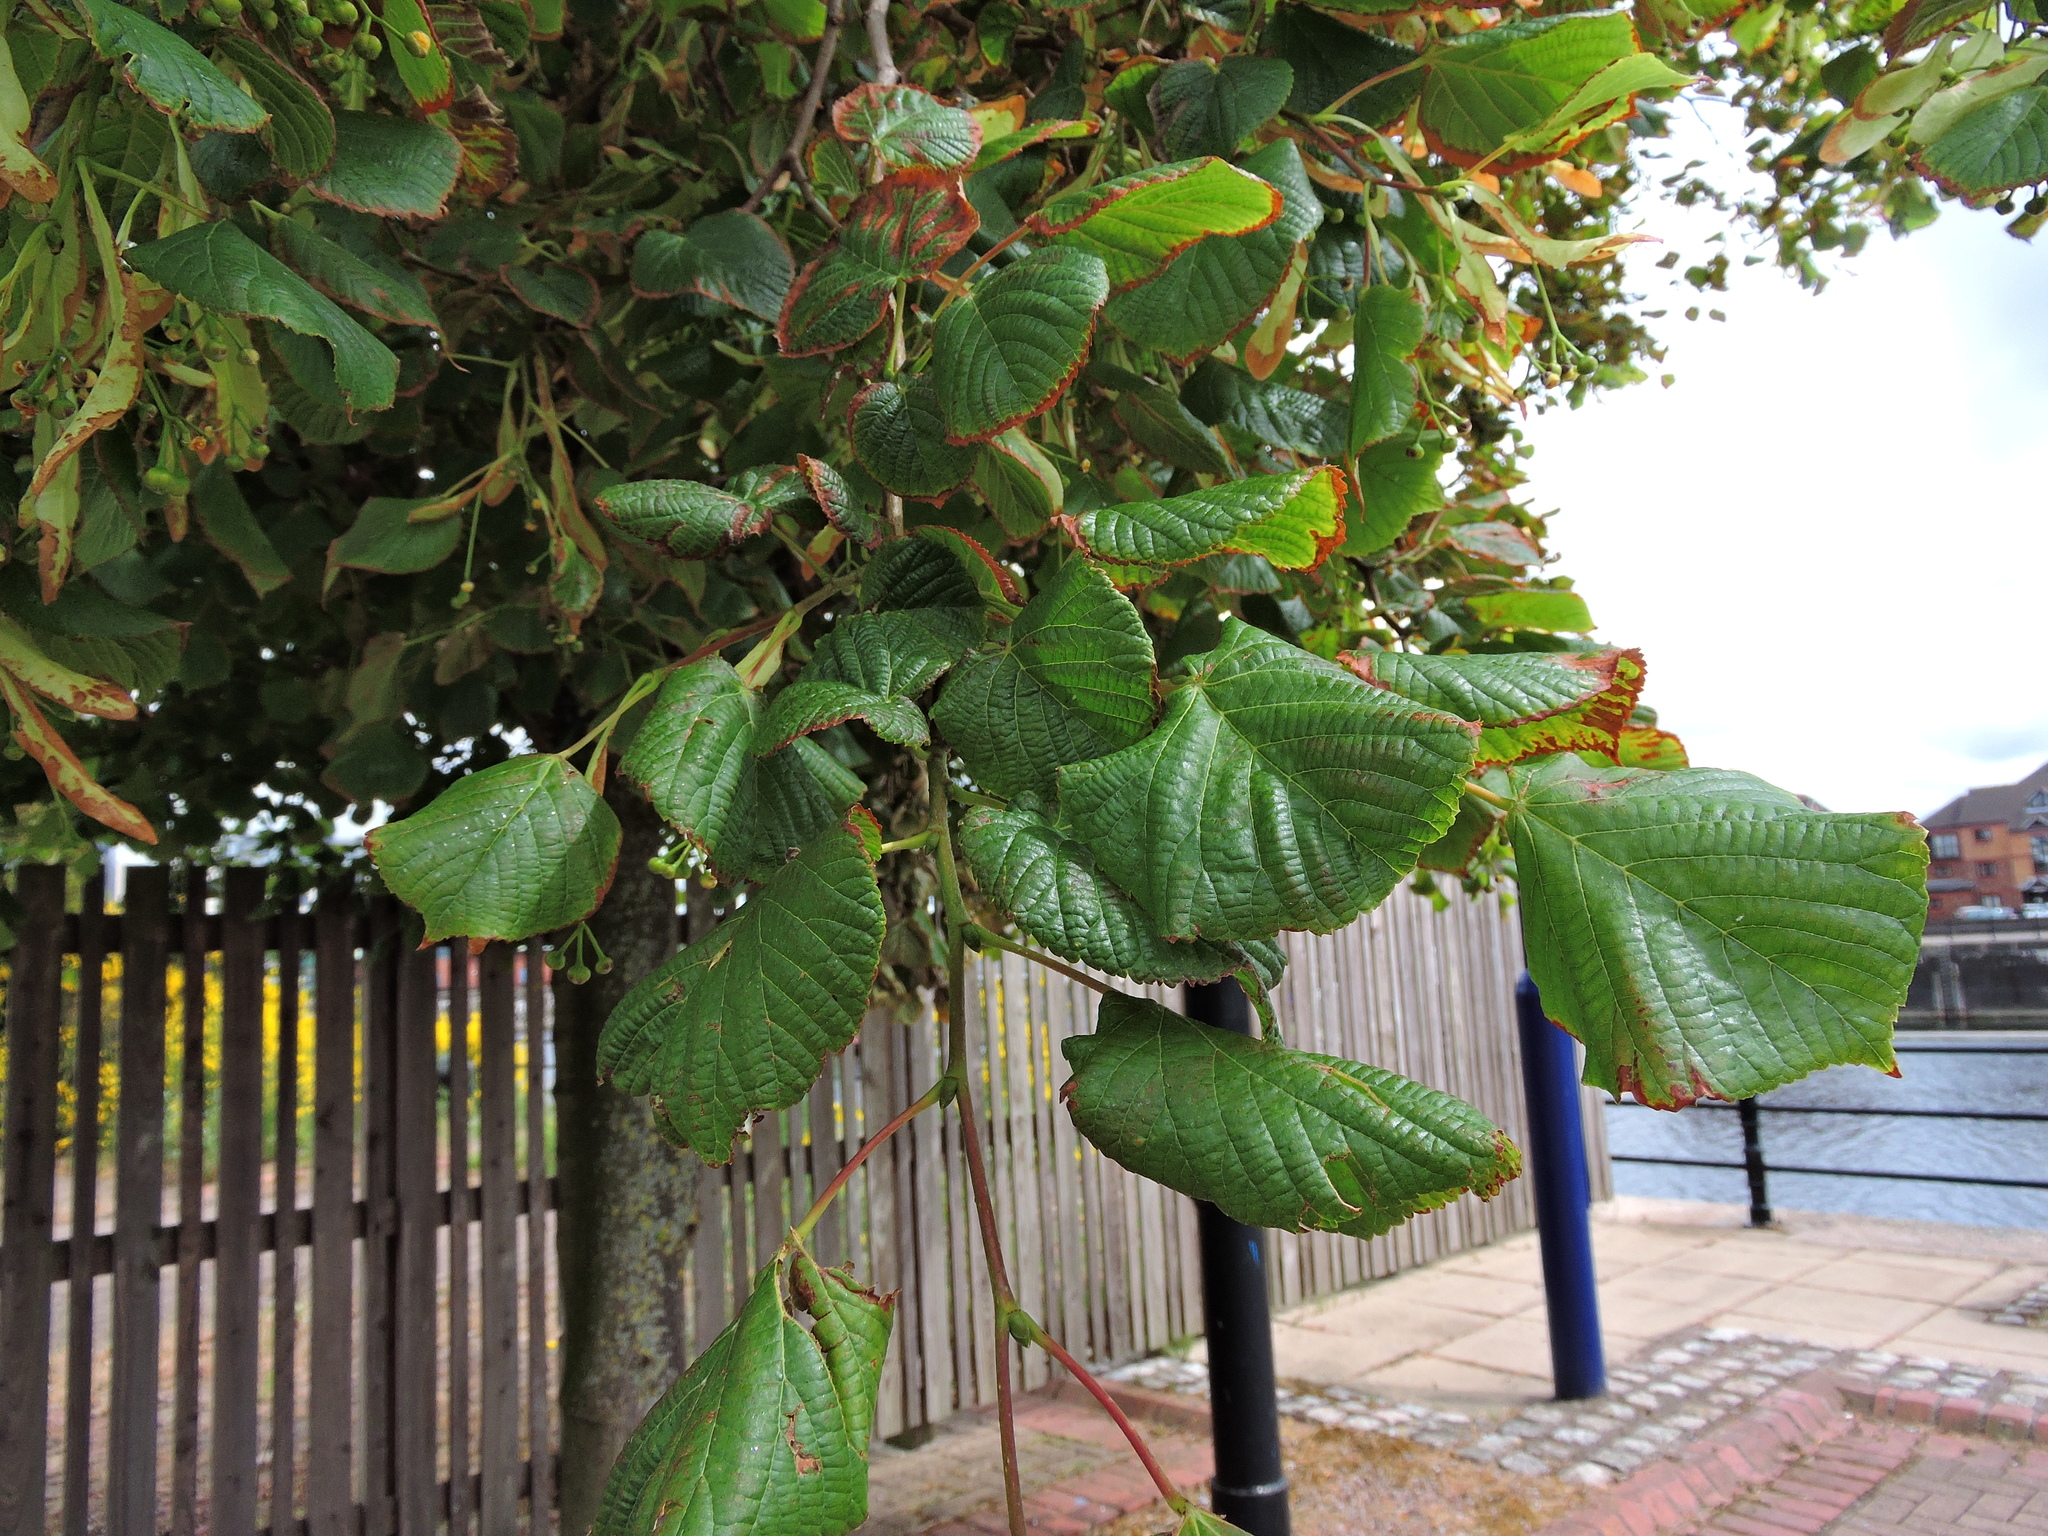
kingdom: Plantae
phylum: Tracheophyta
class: Magnoliopsida
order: Malvales
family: Malvaceae
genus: Tilia
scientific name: Tilia europaea
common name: European linden
